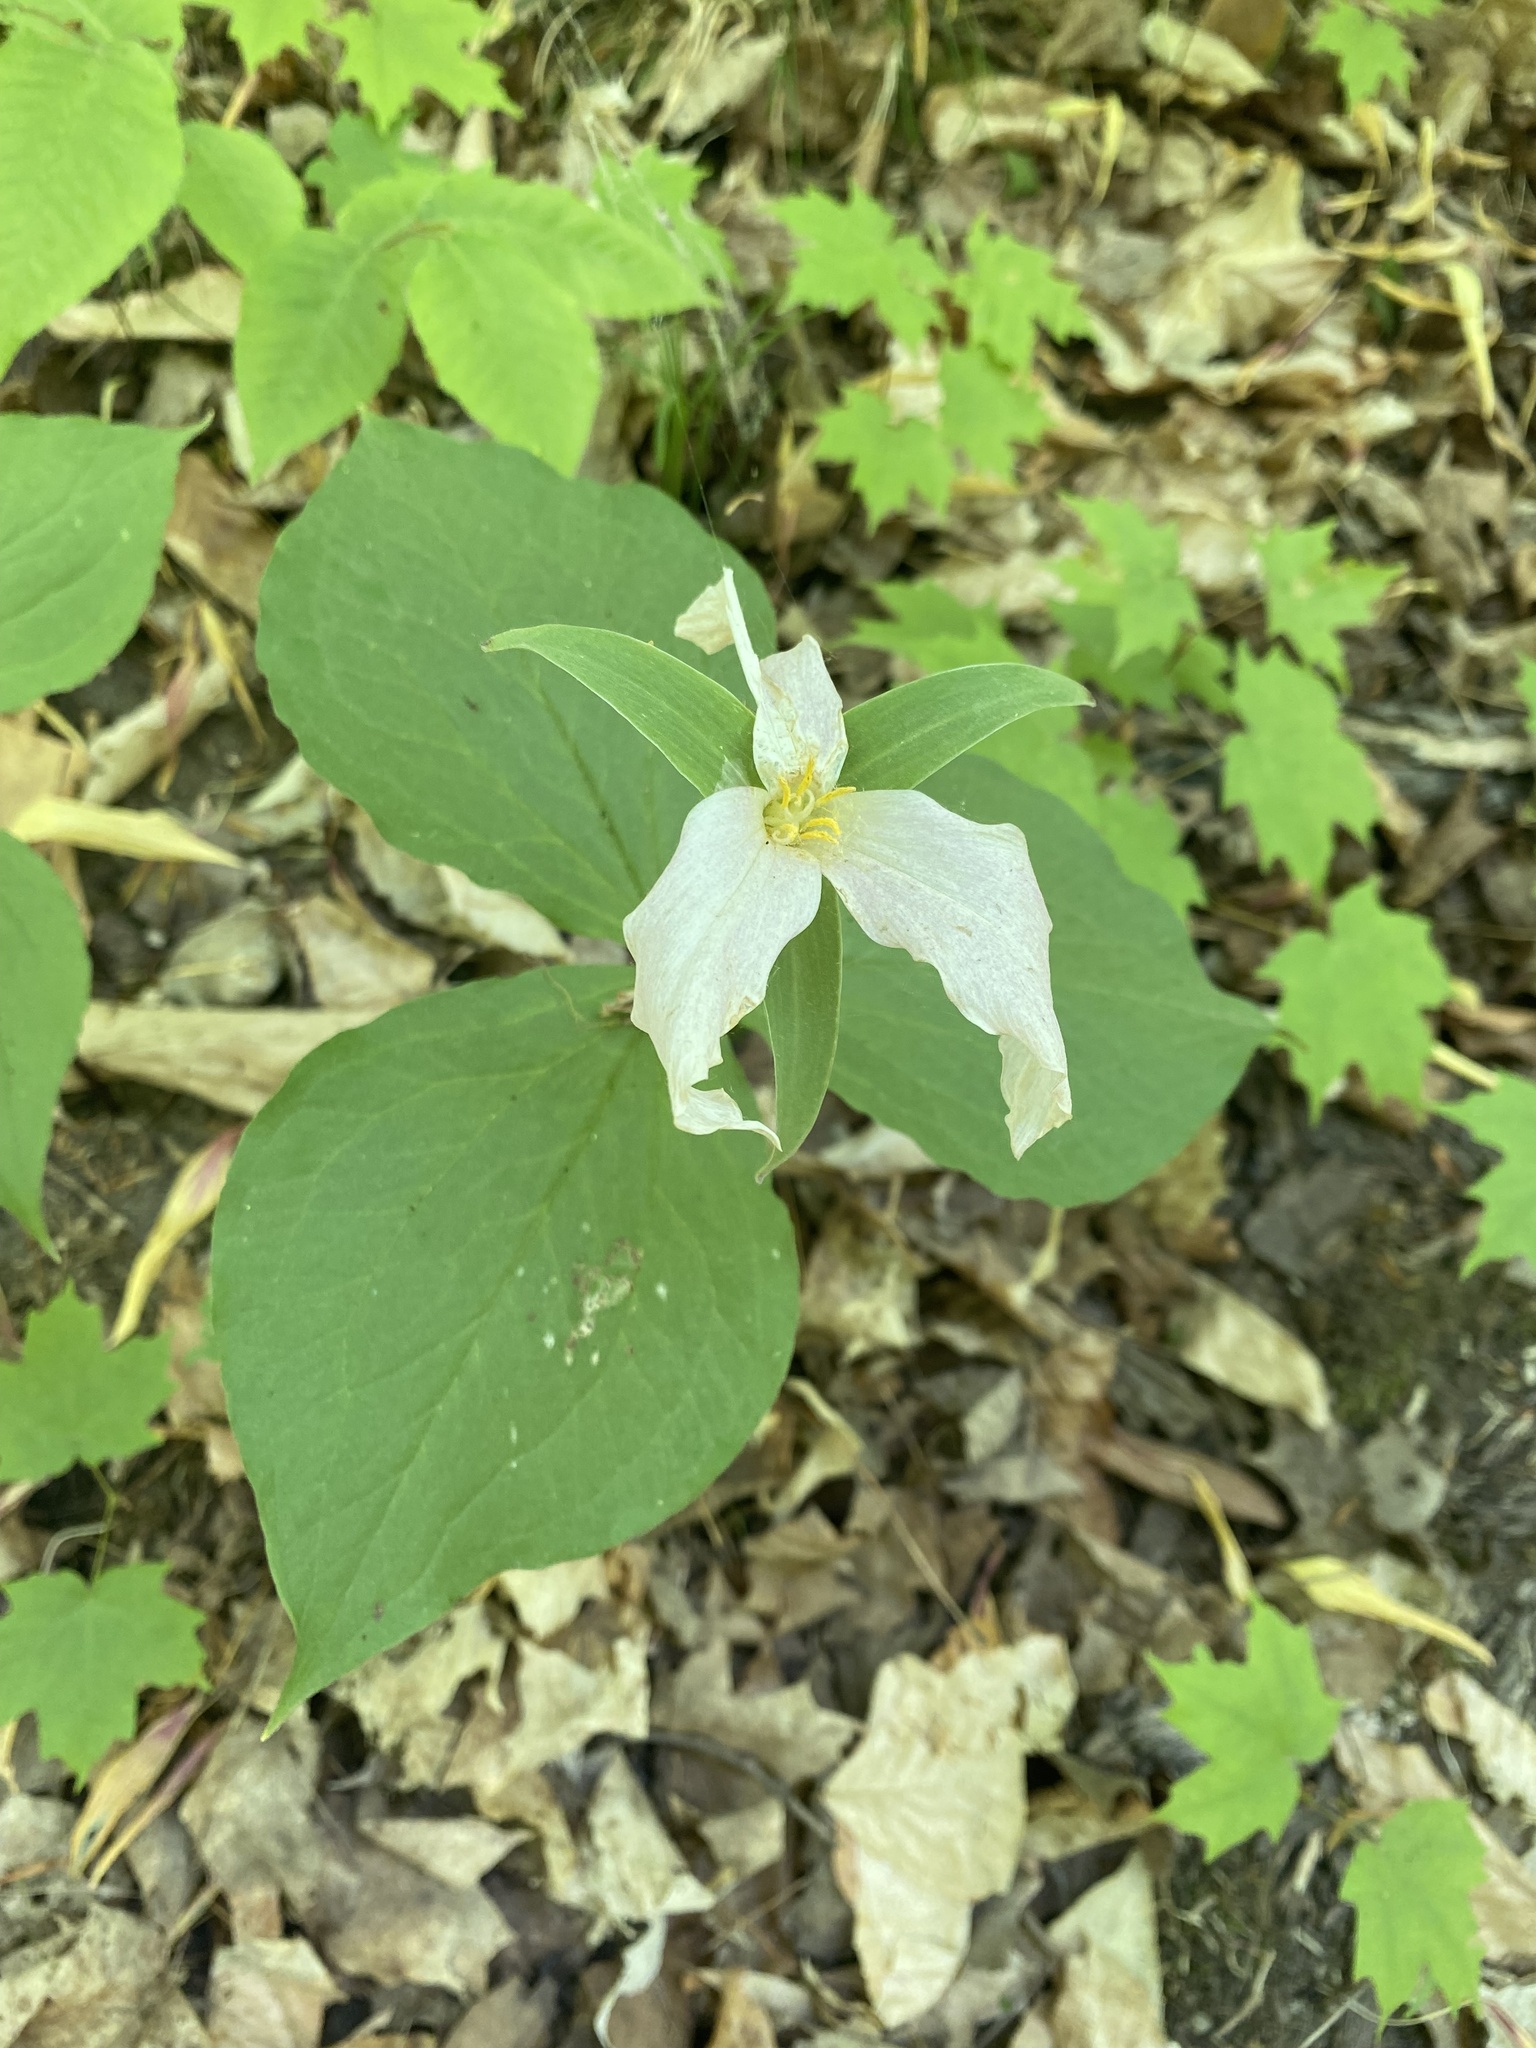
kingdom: Plantae
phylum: Tracheophyta
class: Liliopsida
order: Liliales
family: Melanthiaceae
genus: Trillium
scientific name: Trillium grandiflorum
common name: Great white trillium
